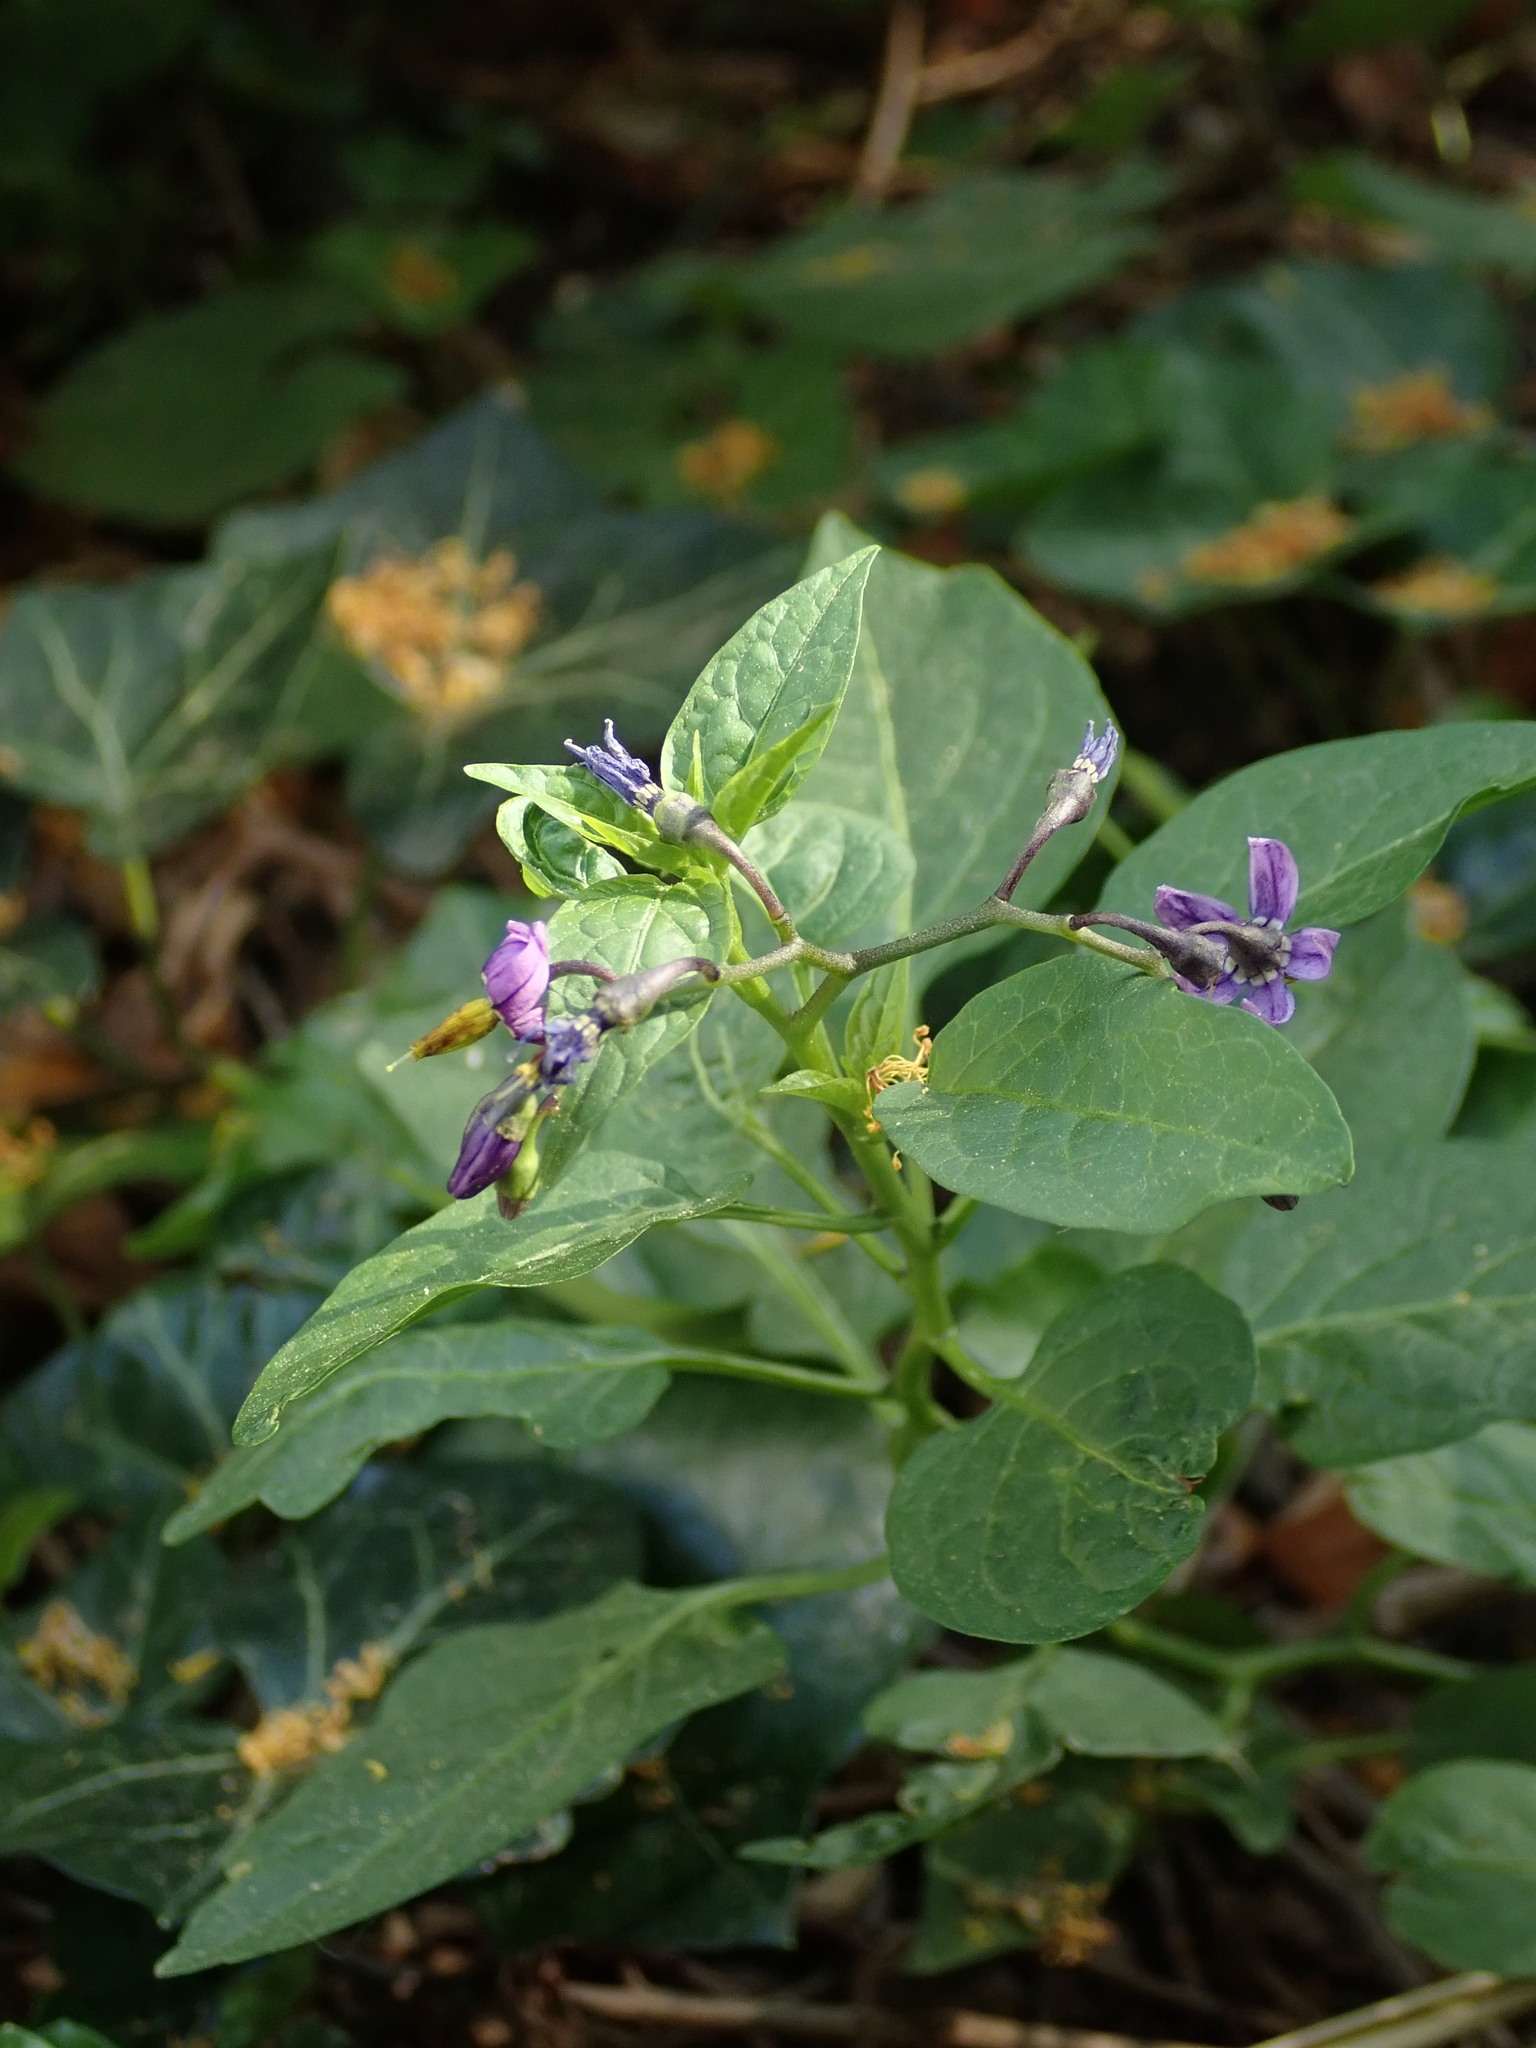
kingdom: Plantae
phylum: Tracheophyta
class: Magnoliopsida
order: Solanales
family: Solanaceae
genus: Solanum
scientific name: Solanum dulcamara
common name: Climbing nightshade
